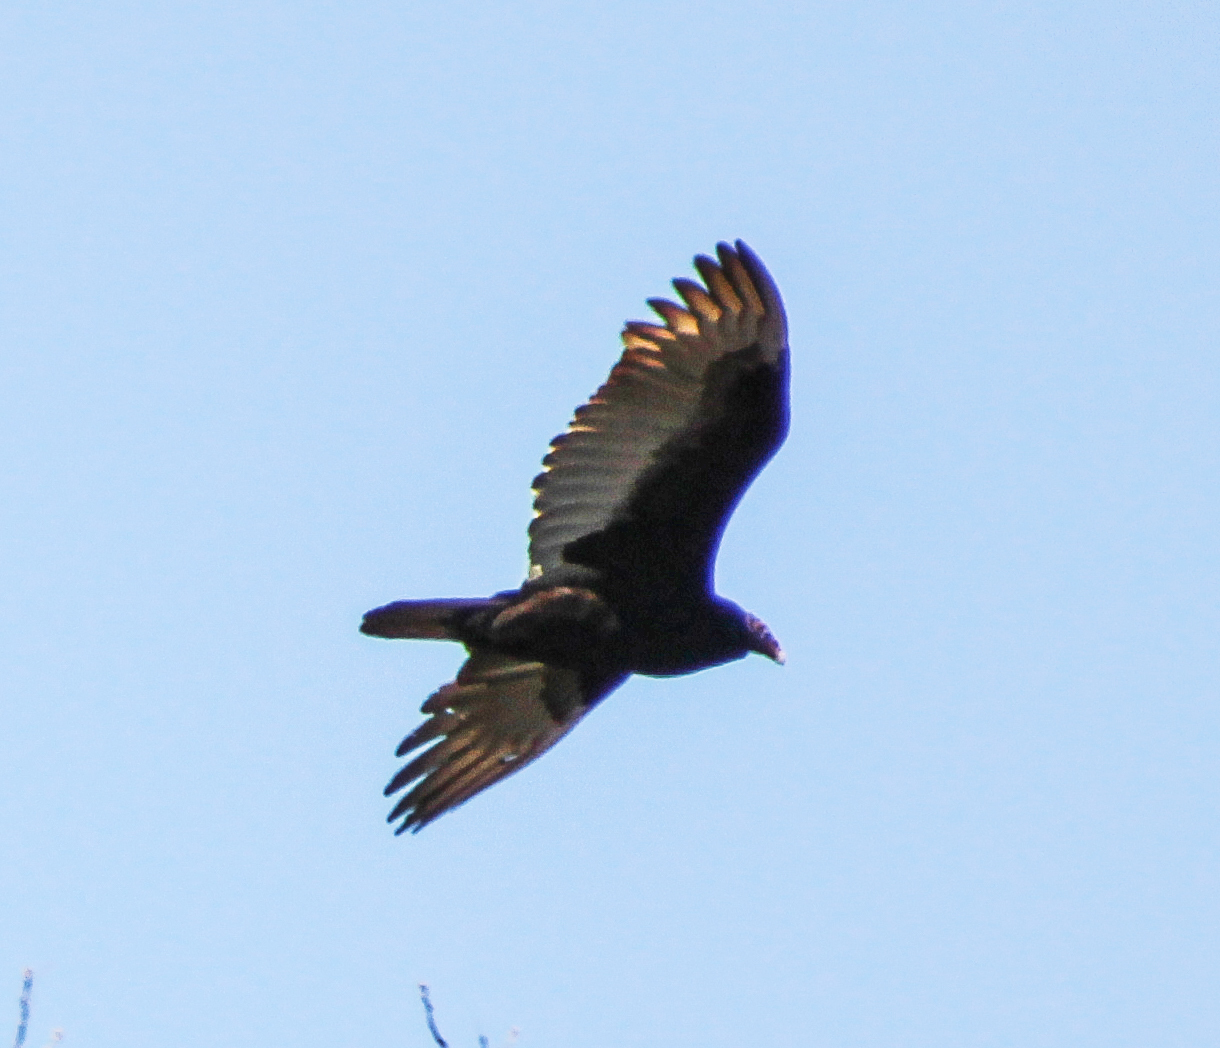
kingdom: Animalia
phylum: Chordata
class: Aves
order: Accipitriformes
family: Cathartidae
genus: Cathartes
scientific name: Cathartes aura
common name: Turkey vulture
